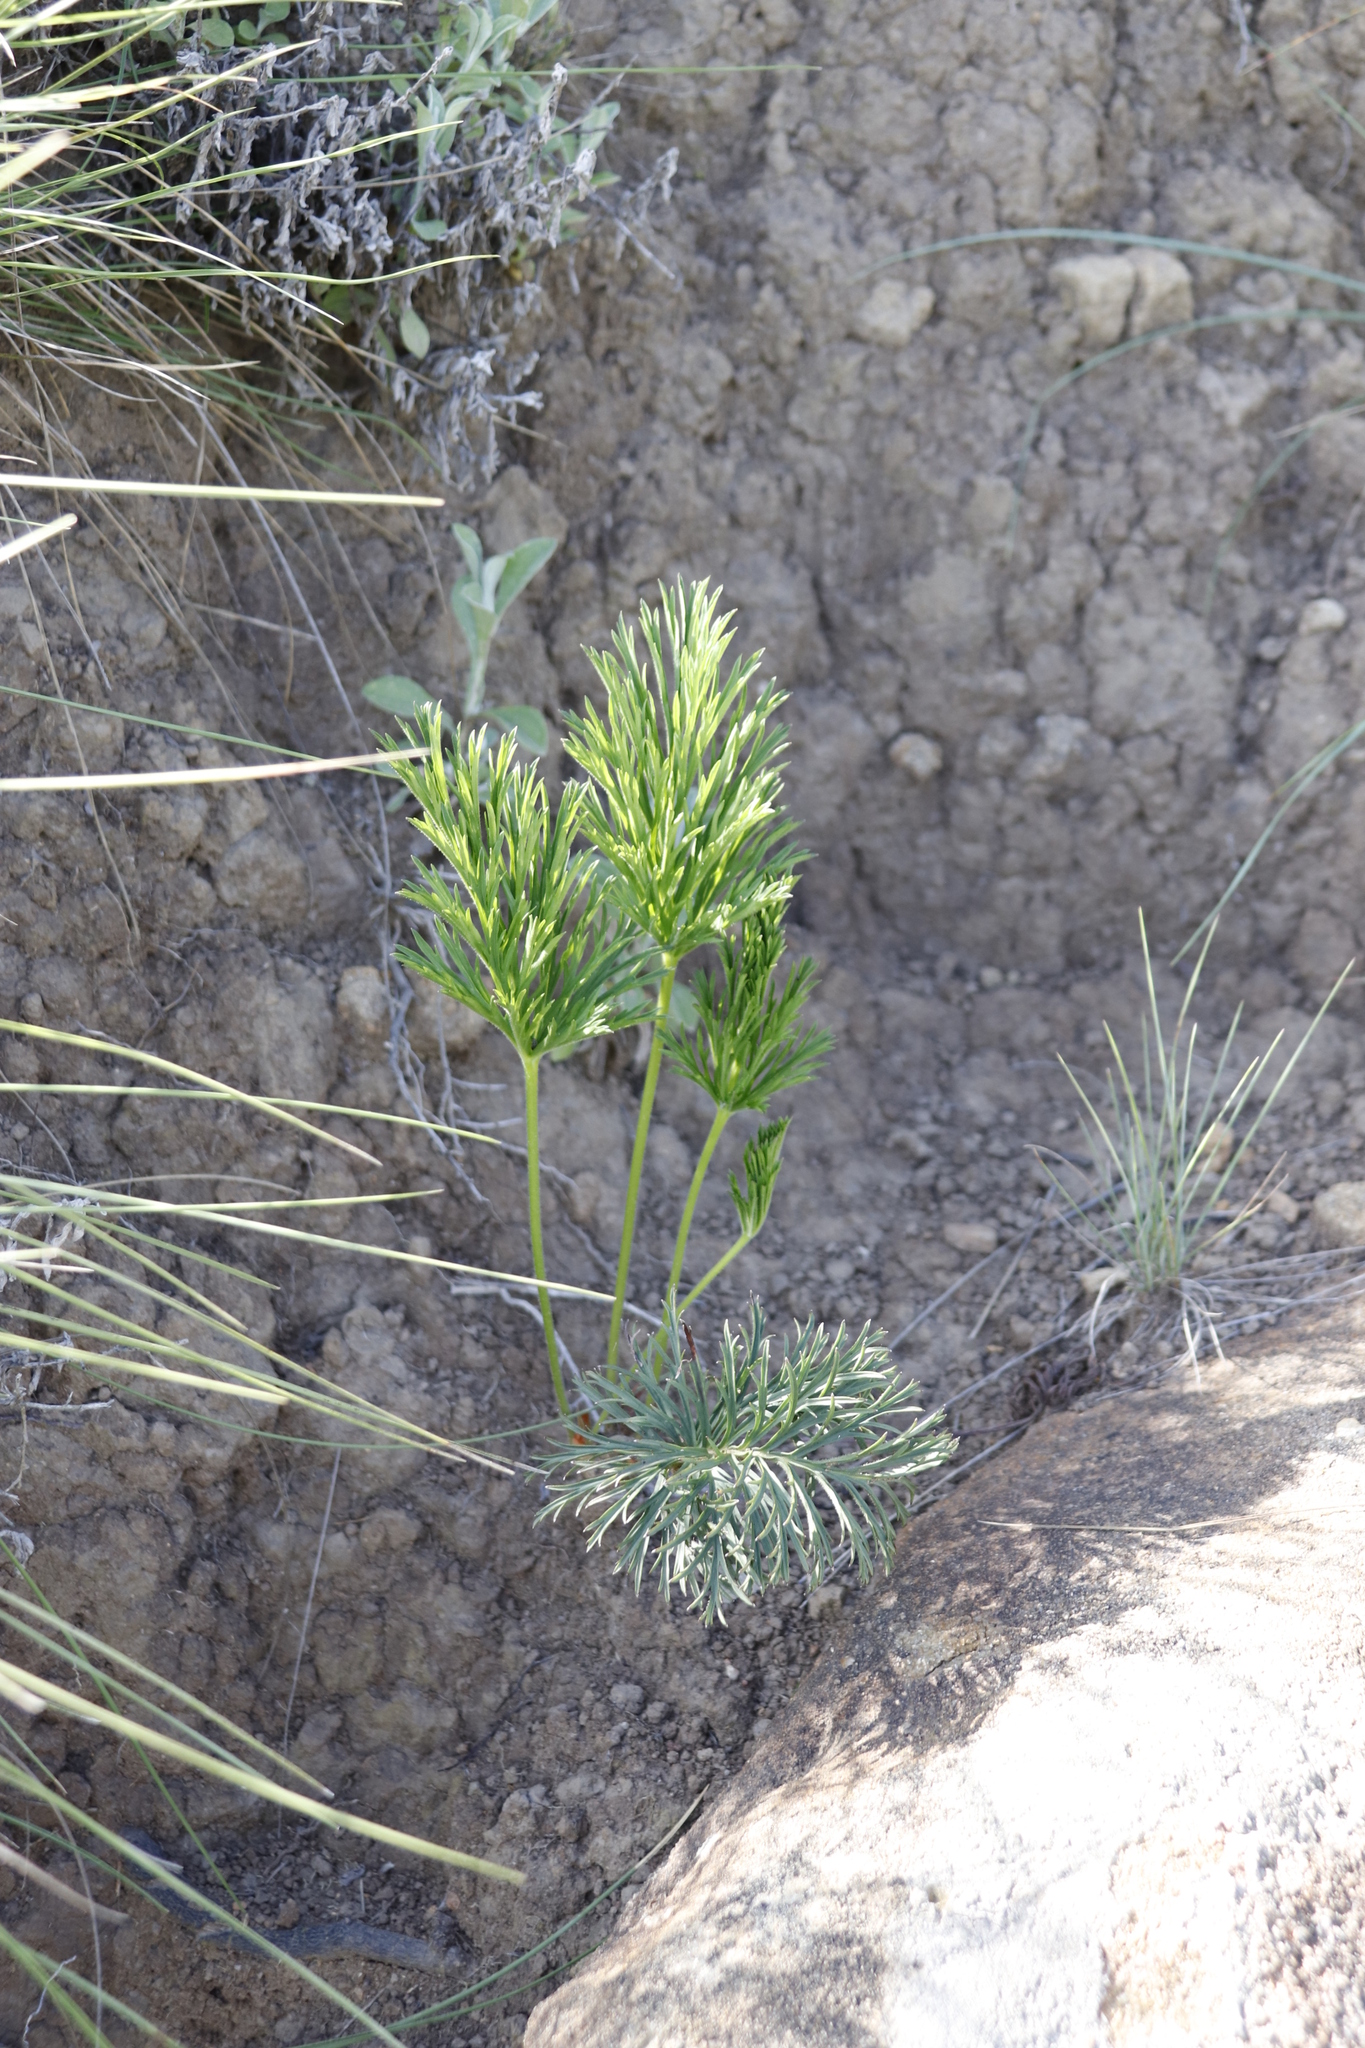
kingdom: Plantae
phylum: Tracheophyta
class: Magnoliopsida
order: Geraniales
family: Geraniaceae
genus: Pelargonium
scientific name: Pelargonium luridum
